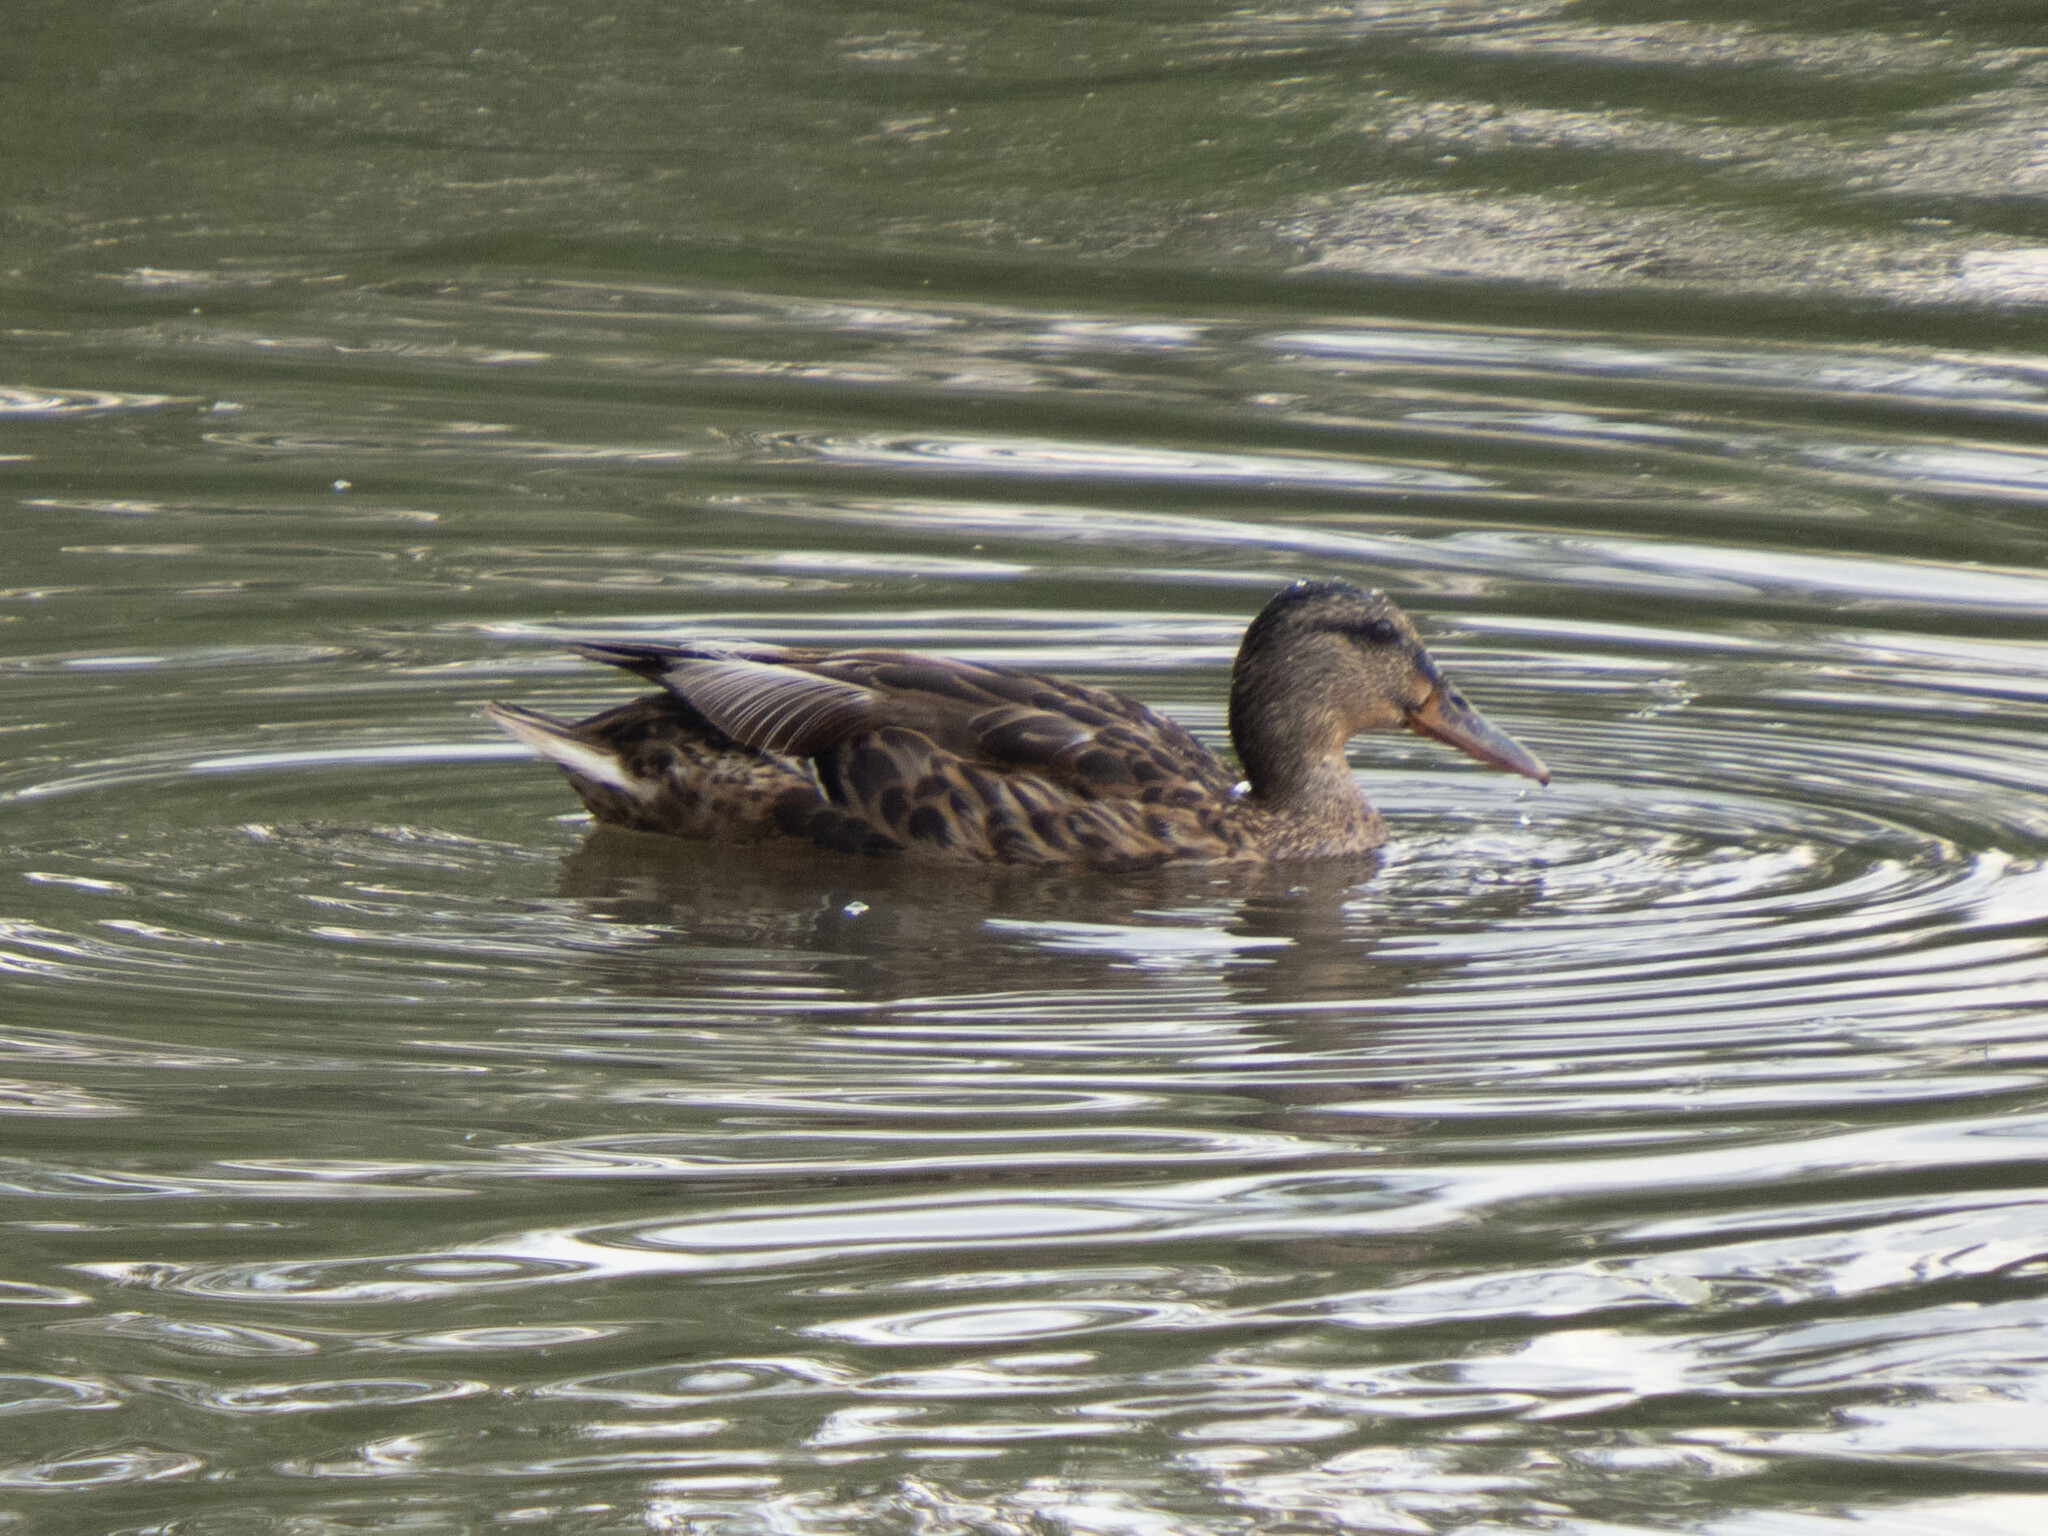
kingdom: Animalia
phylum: Chordata
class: Aves
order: Anseriformes
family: Anatidae
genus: Anas
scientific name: Anas platyrhynchos
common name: Mallard
